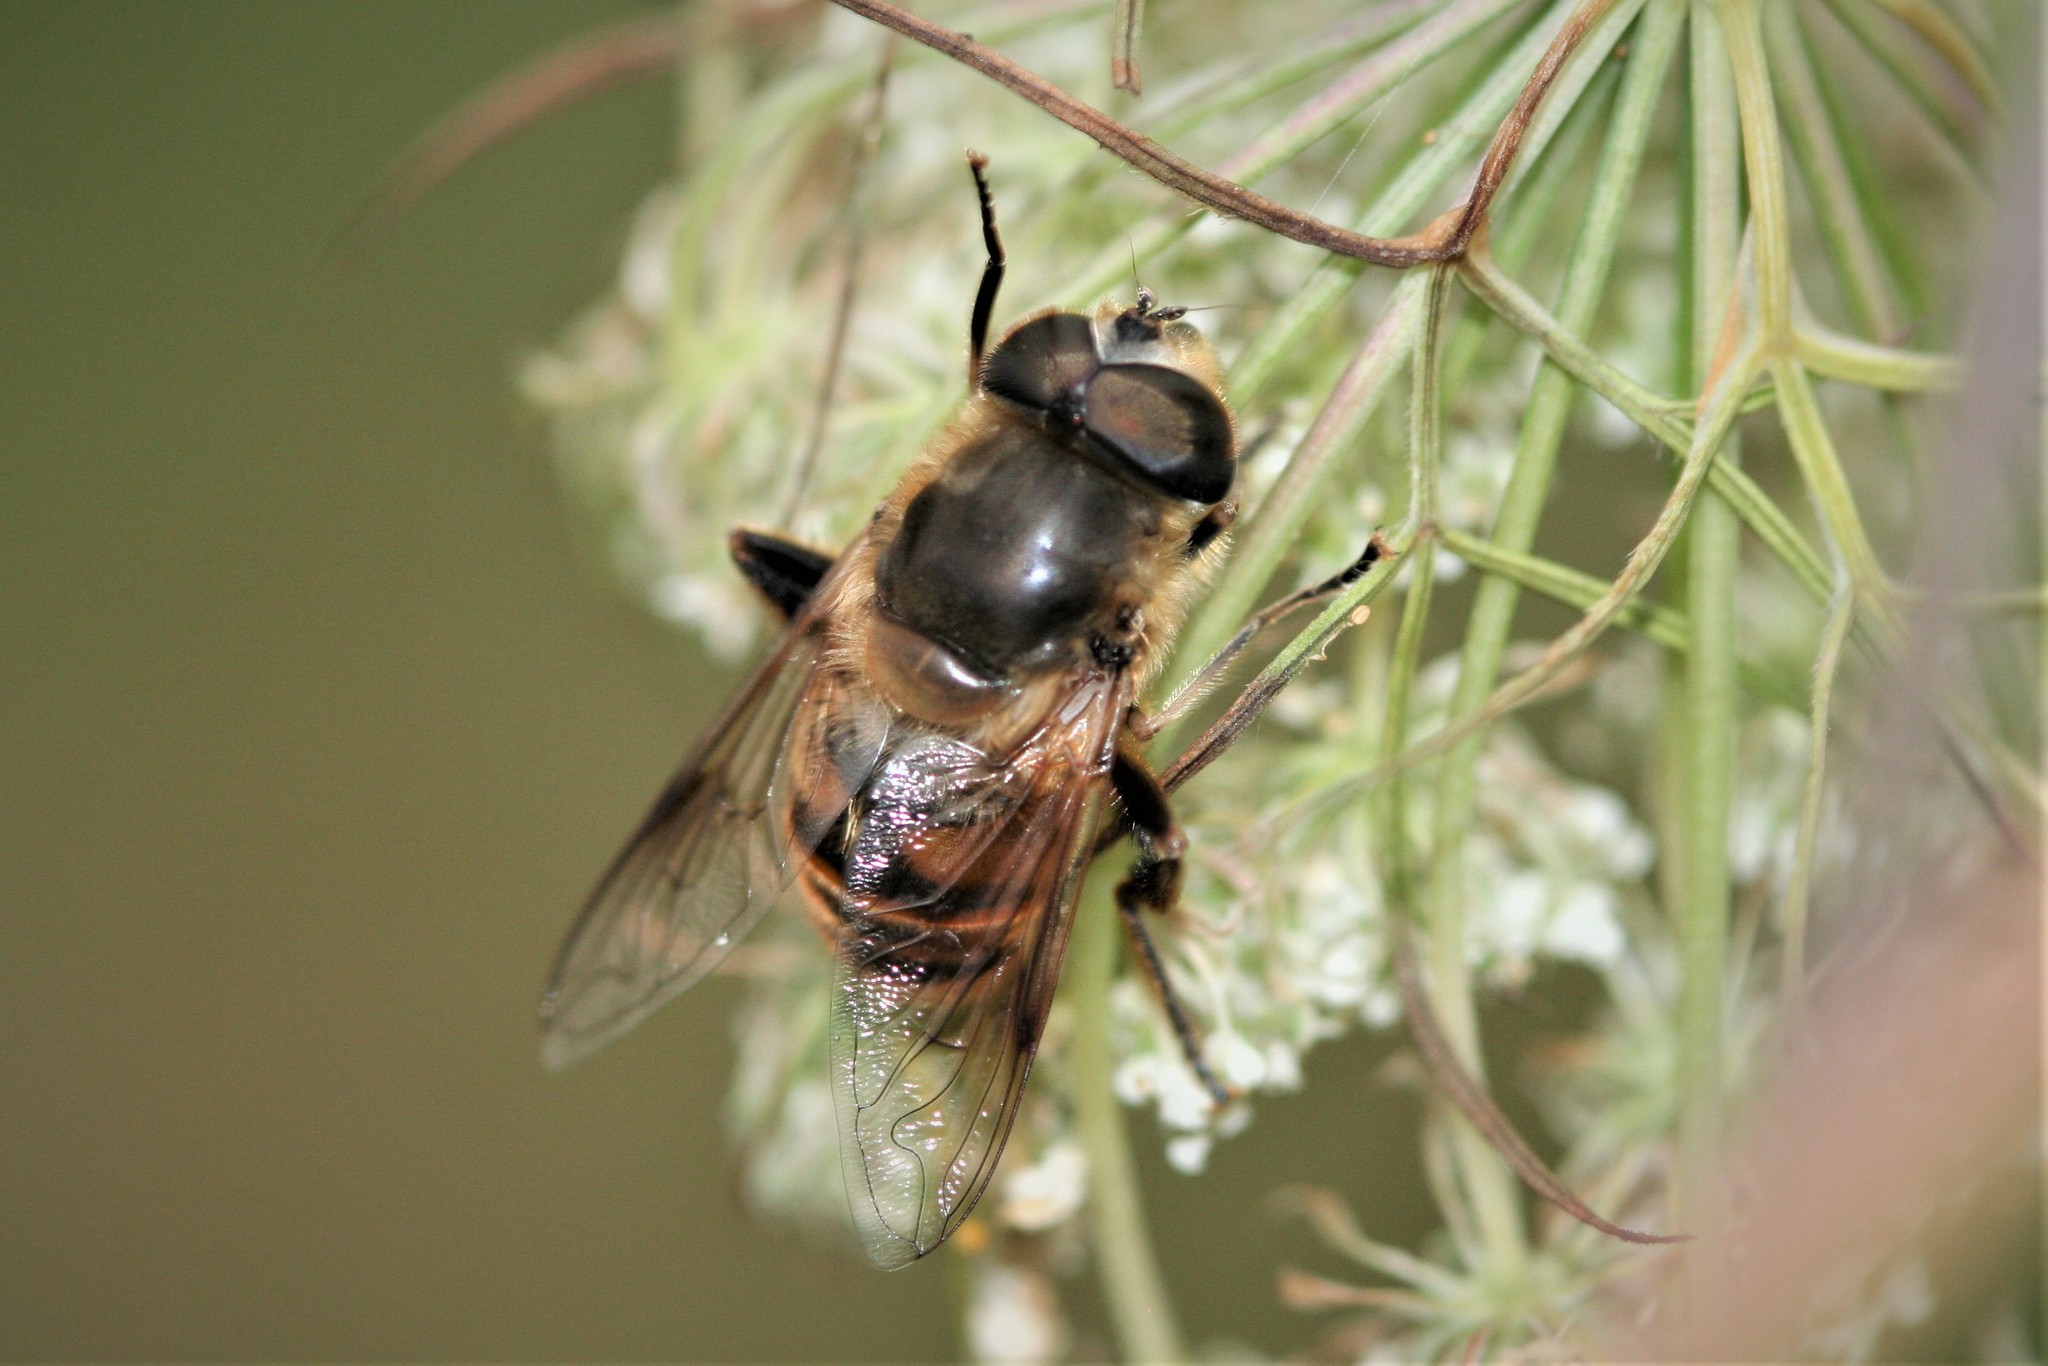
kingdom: Animalia
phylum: Arthropoda
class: Insecta
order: Diptera
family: Syrphidae
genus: Eristalis
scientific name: Eristalis tenax
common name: Drone fly
